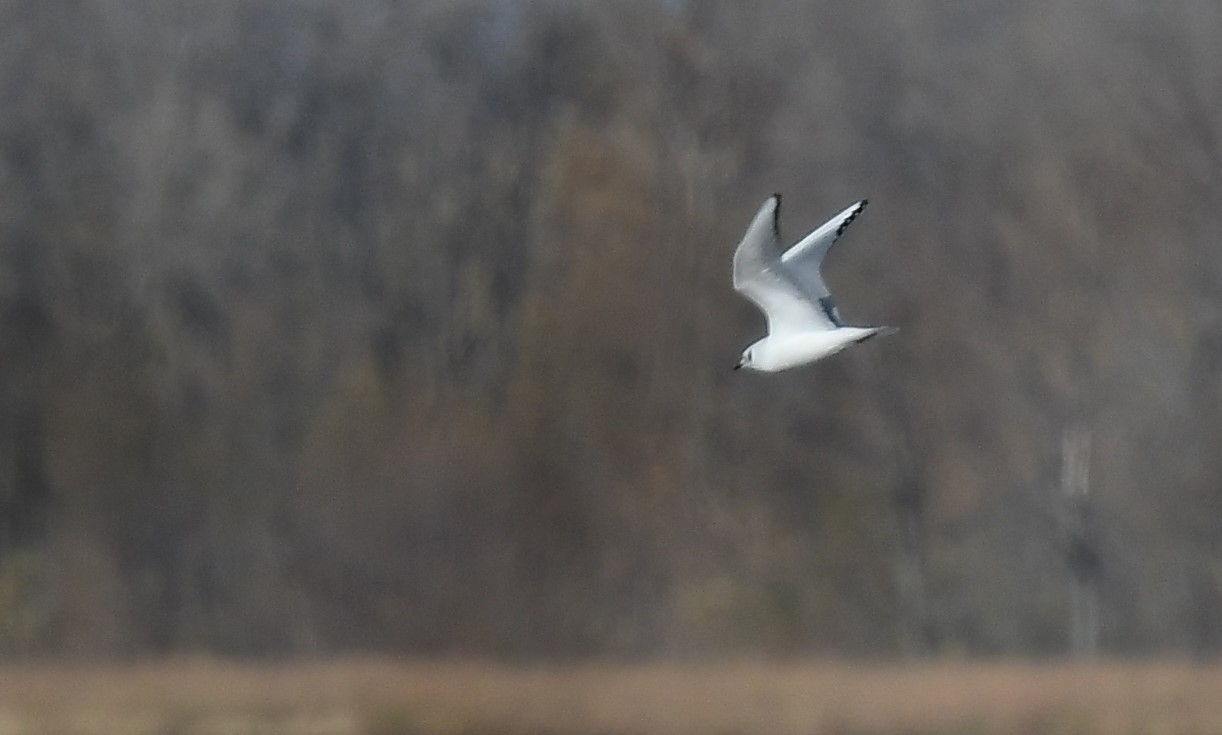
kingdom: Animalia
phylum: Chordata
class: Aves
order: Charadriiformes
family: Laridae
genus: Chroicocephalus
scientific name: Chroicocephalus philadelphia
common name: Bonaparte's gull
